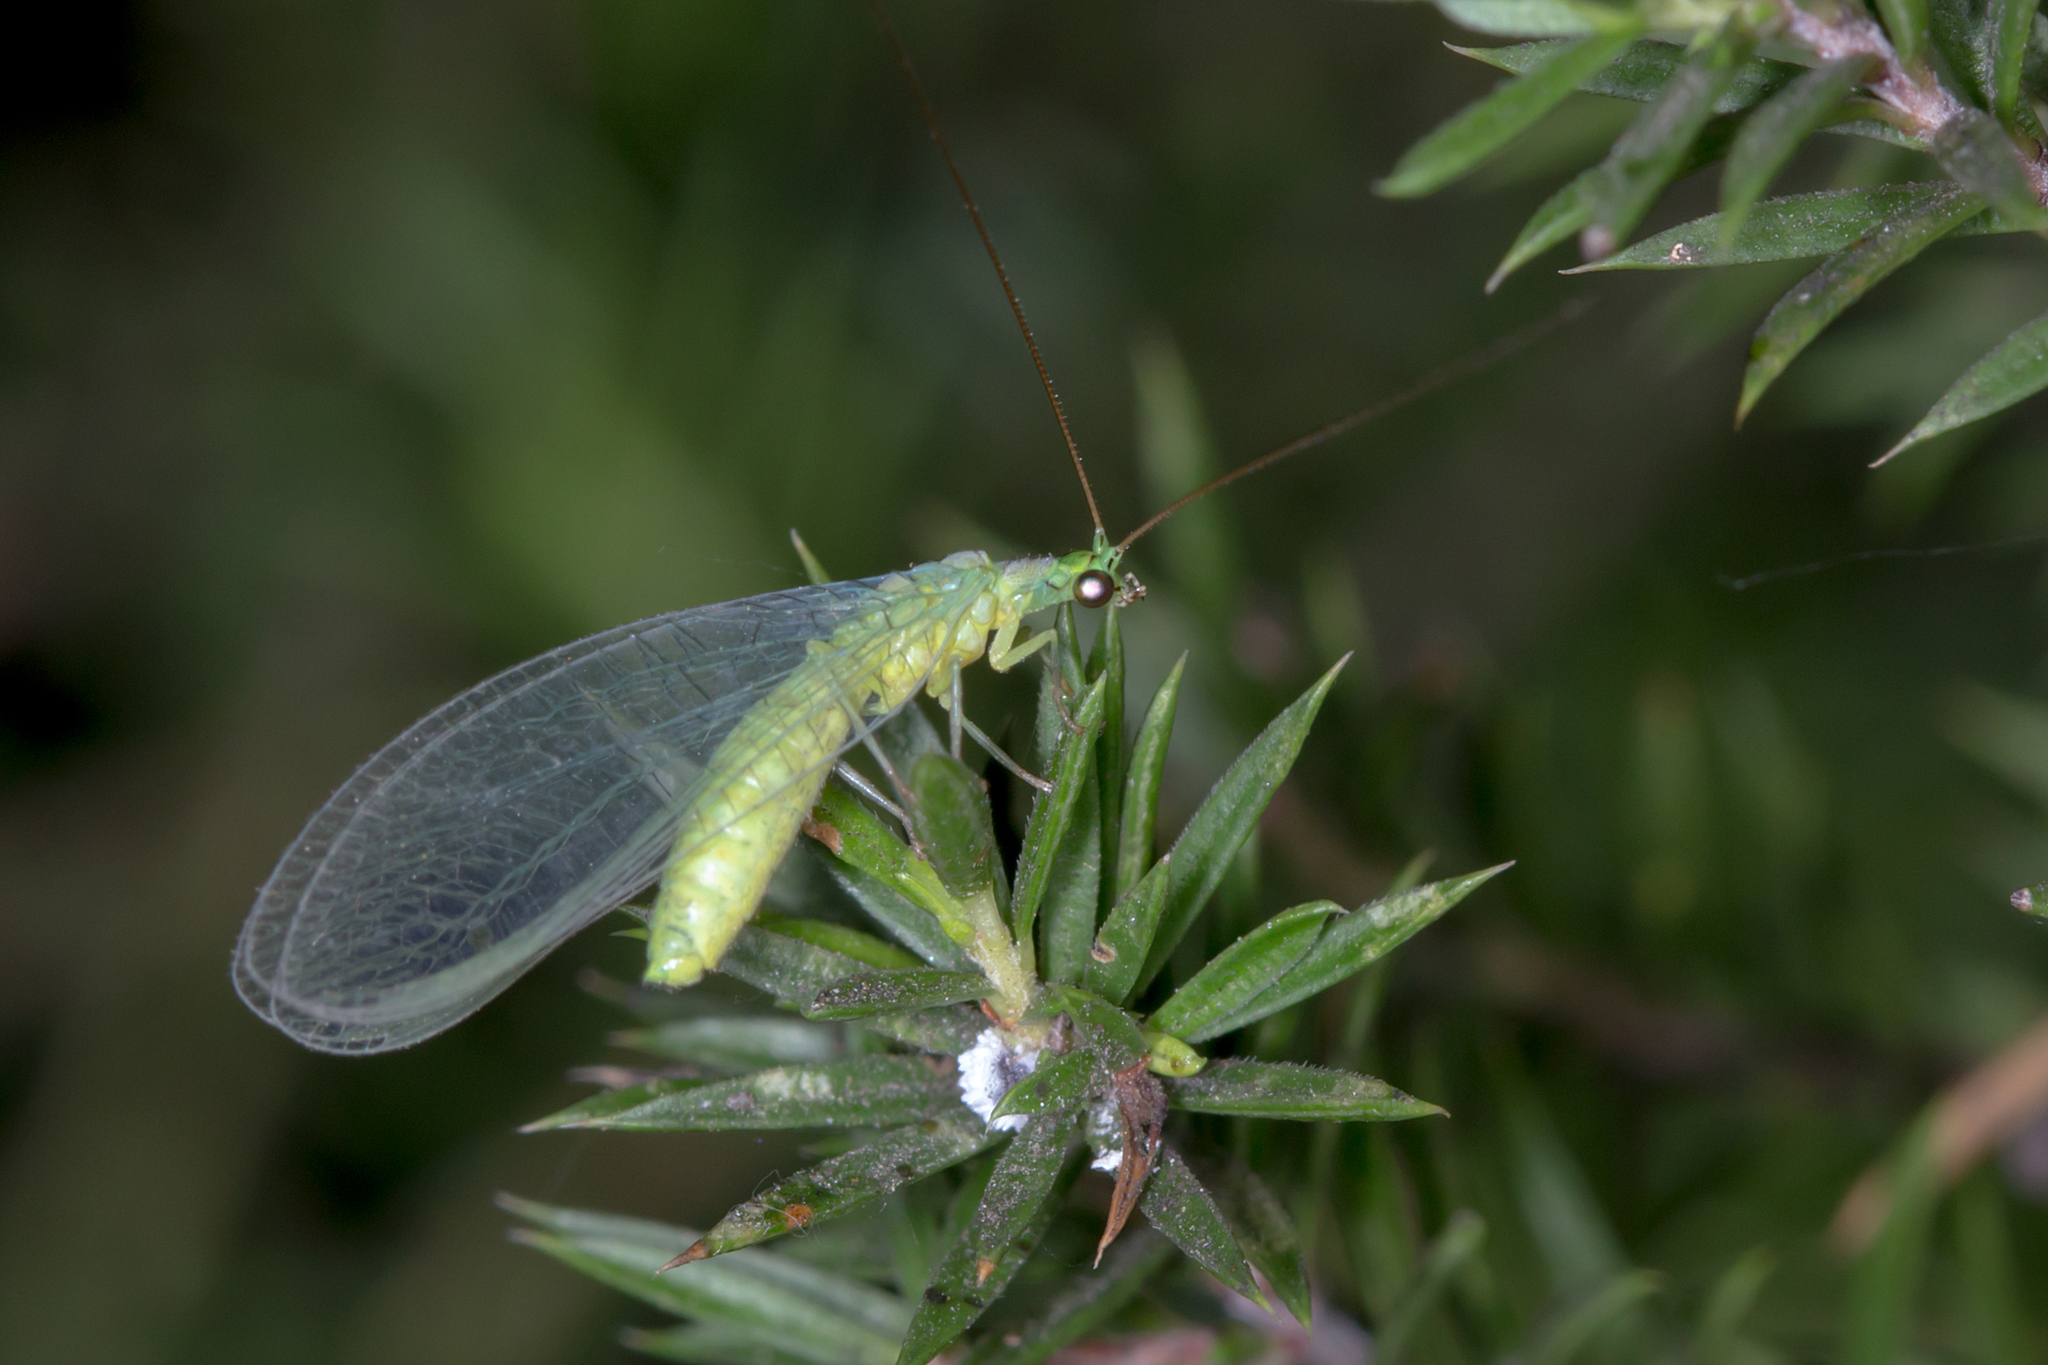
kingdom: Animalia
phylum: Arthropoda
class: Insecta
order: Neuroptera
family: Chrysopidae
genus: Mallada
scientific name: Mallada signatus
